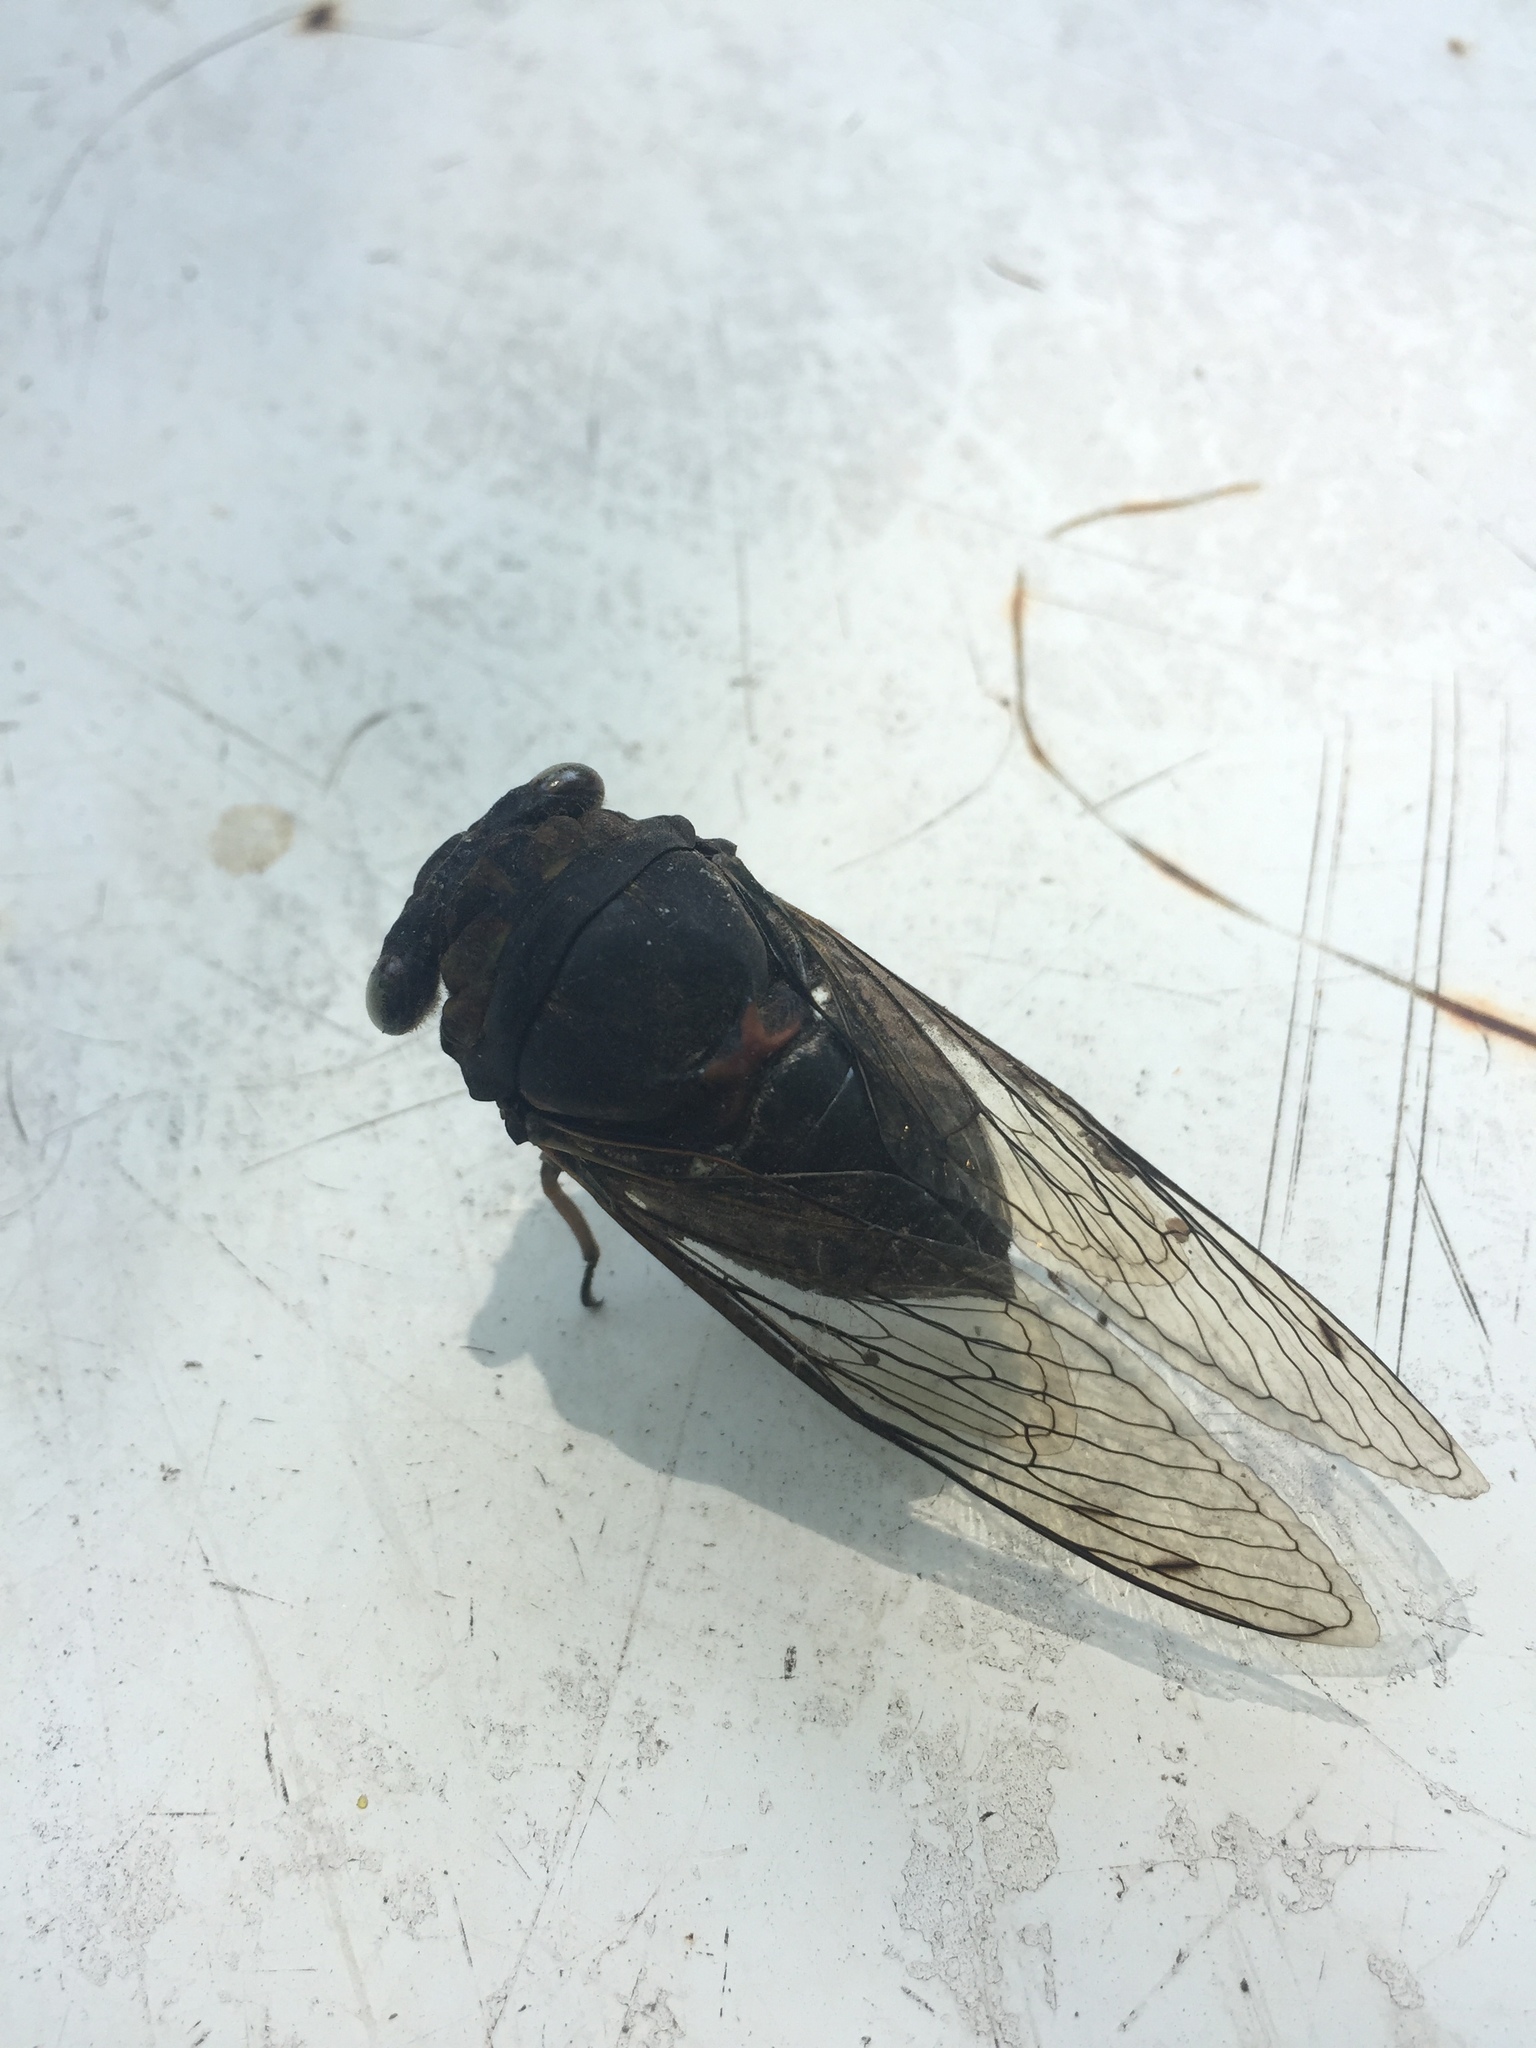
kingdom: Animalia
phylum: Arthropoda
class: Insecta
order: Hemiptera
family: Cicadidae
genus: Neotibicen
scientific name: Neotibicen tibicen
